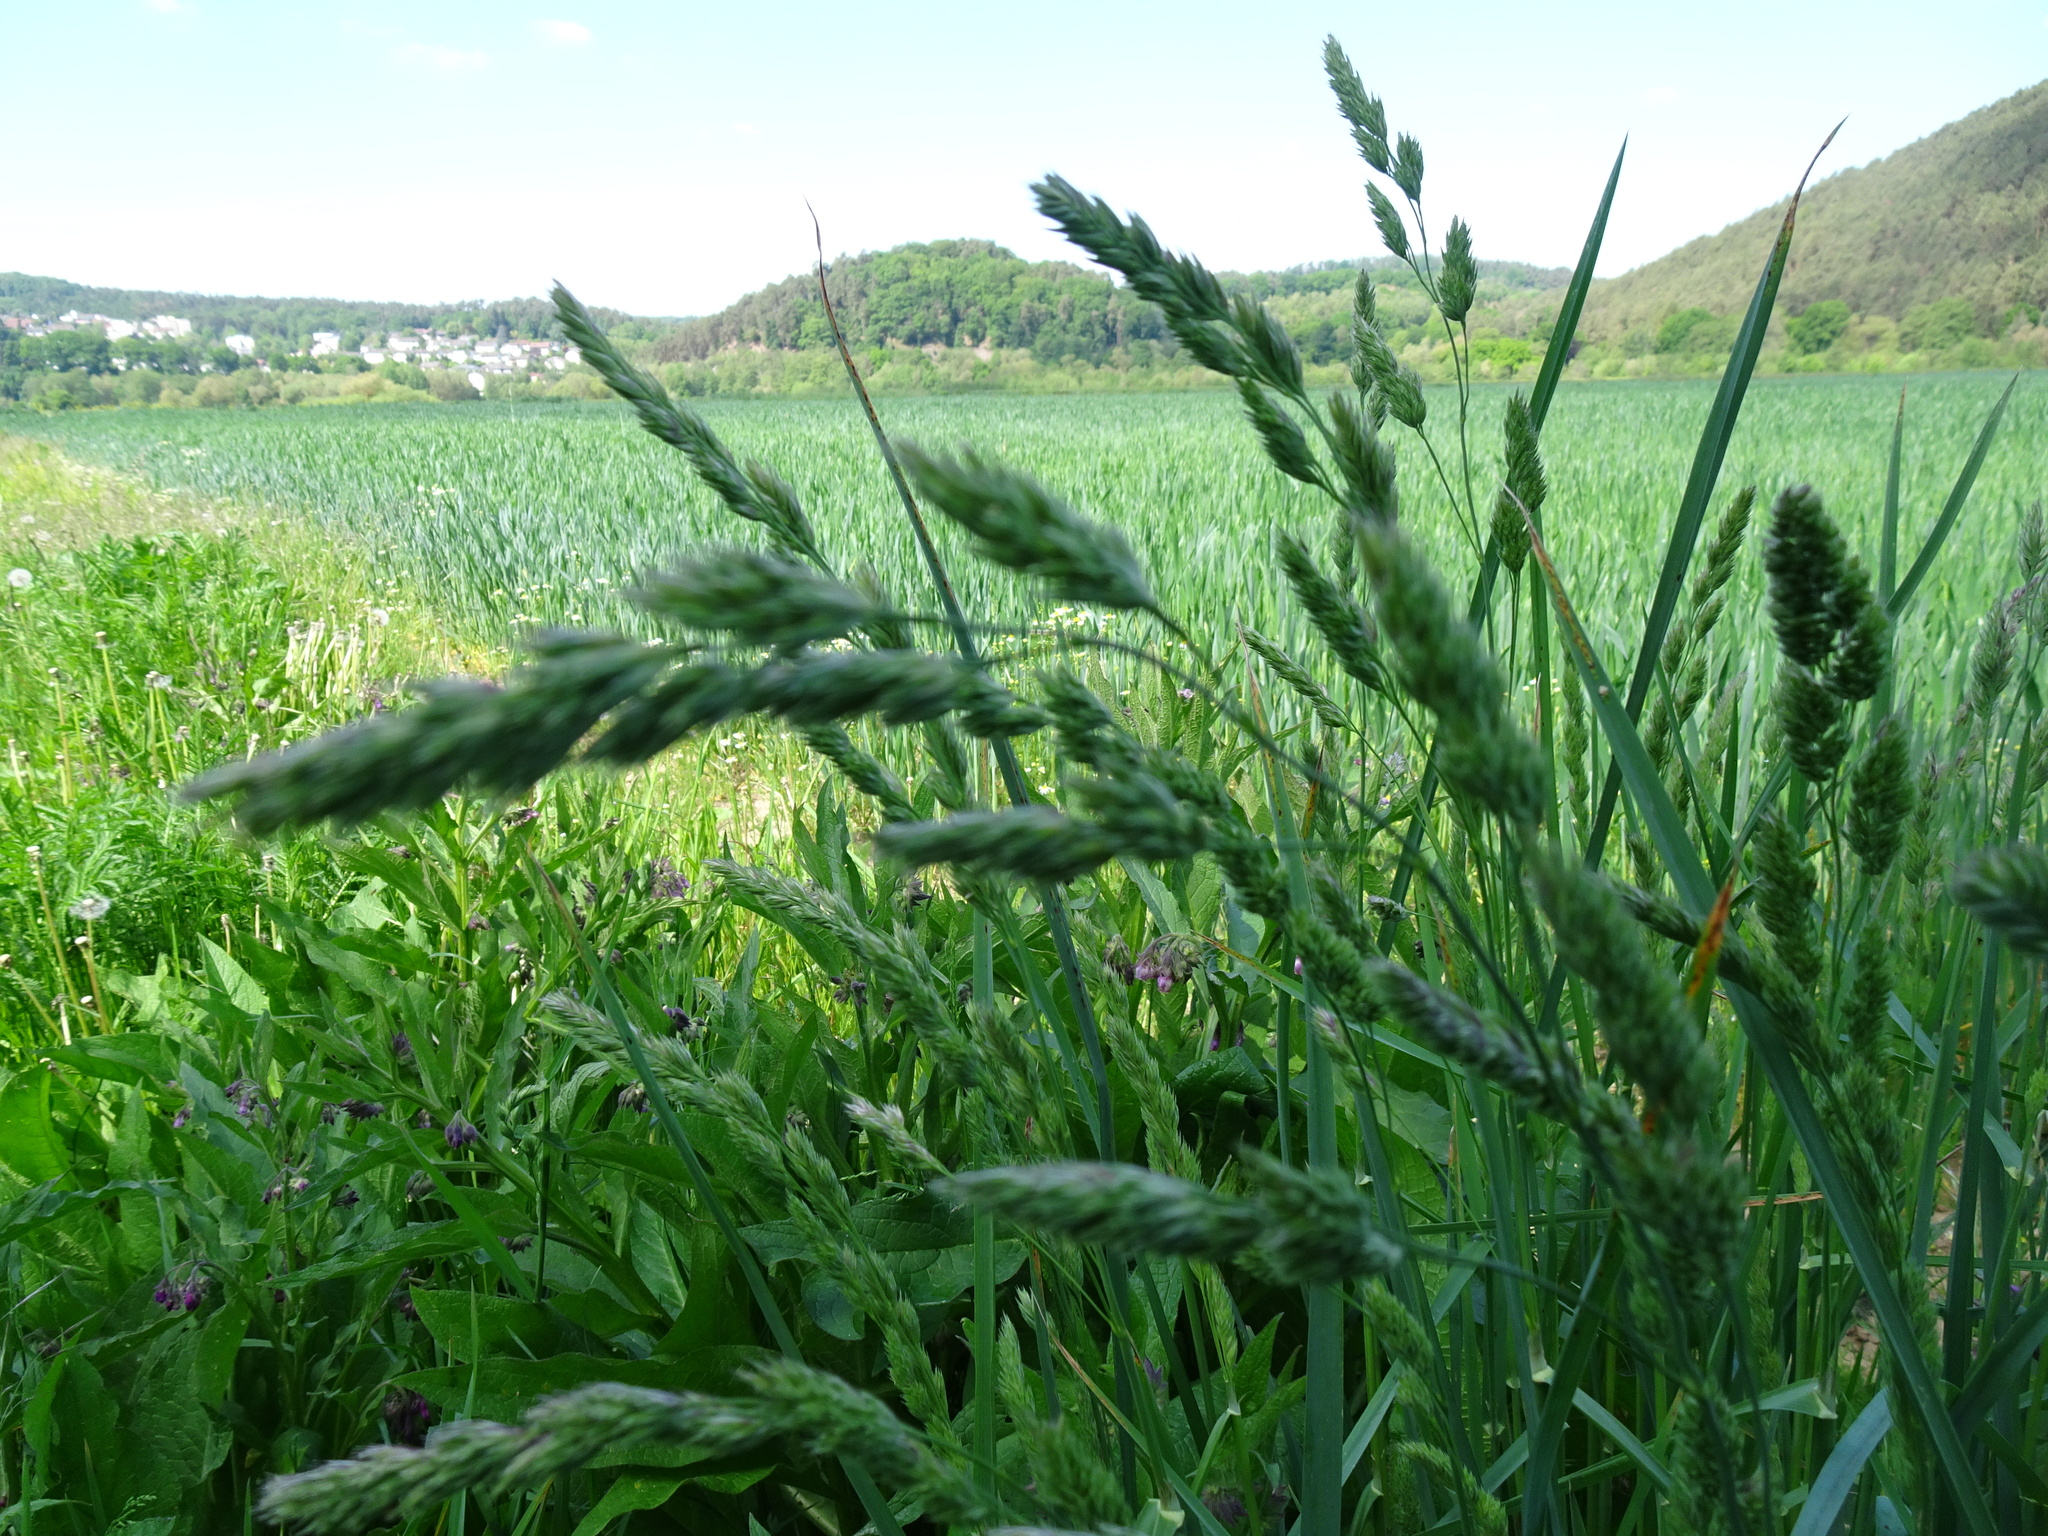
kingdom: Plantae
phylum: Tracheophyta
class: Liliopsida
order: Poales
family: Poaceae
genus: Dactylis
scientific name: Dactylis glomerata
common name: Orchardgrass
